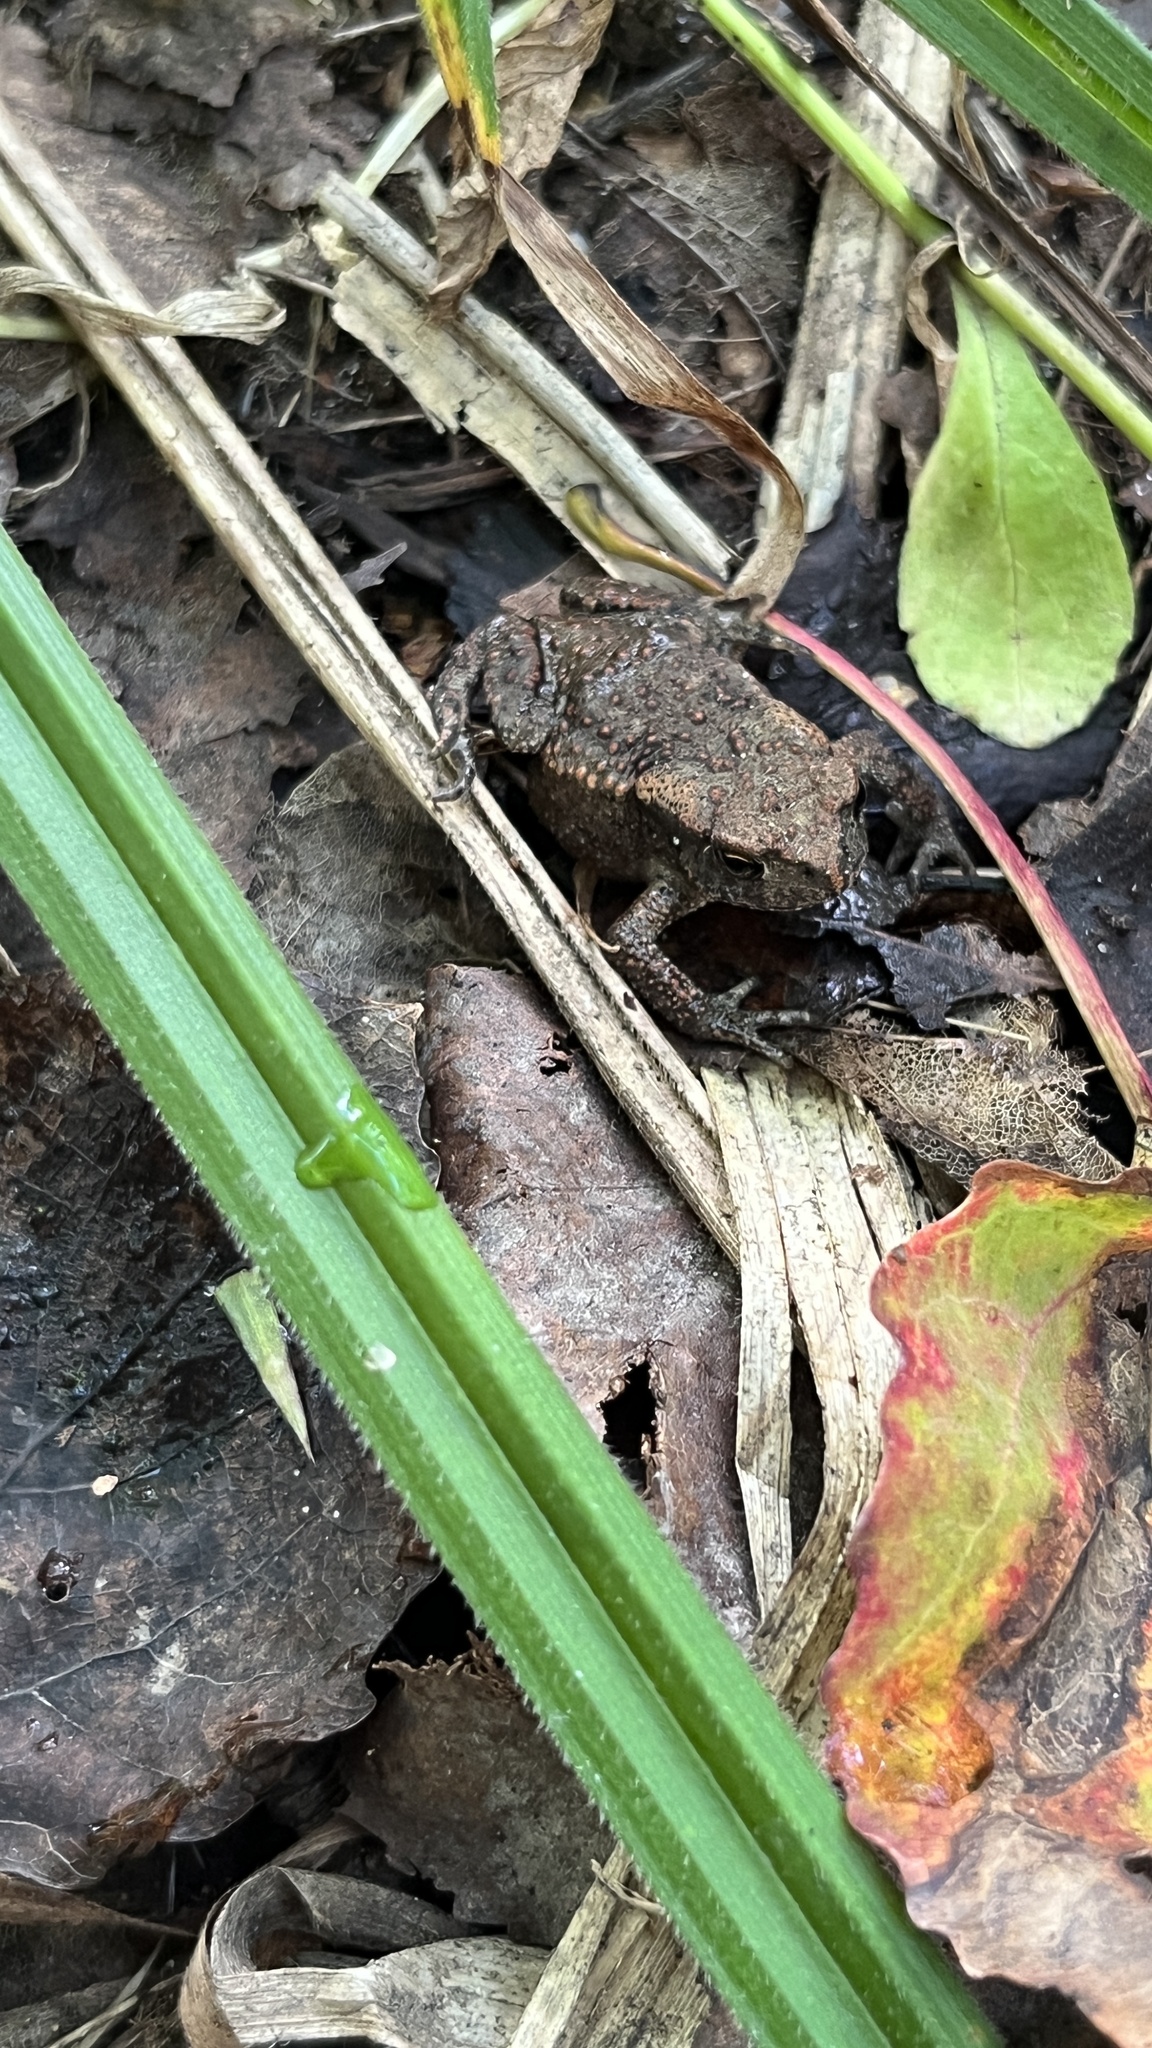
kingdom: Animalia
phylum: Chordata
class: Amphibia
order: Anura
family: Bufonidae
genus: Bufo
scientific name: Bufo bufo
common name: Common toad
